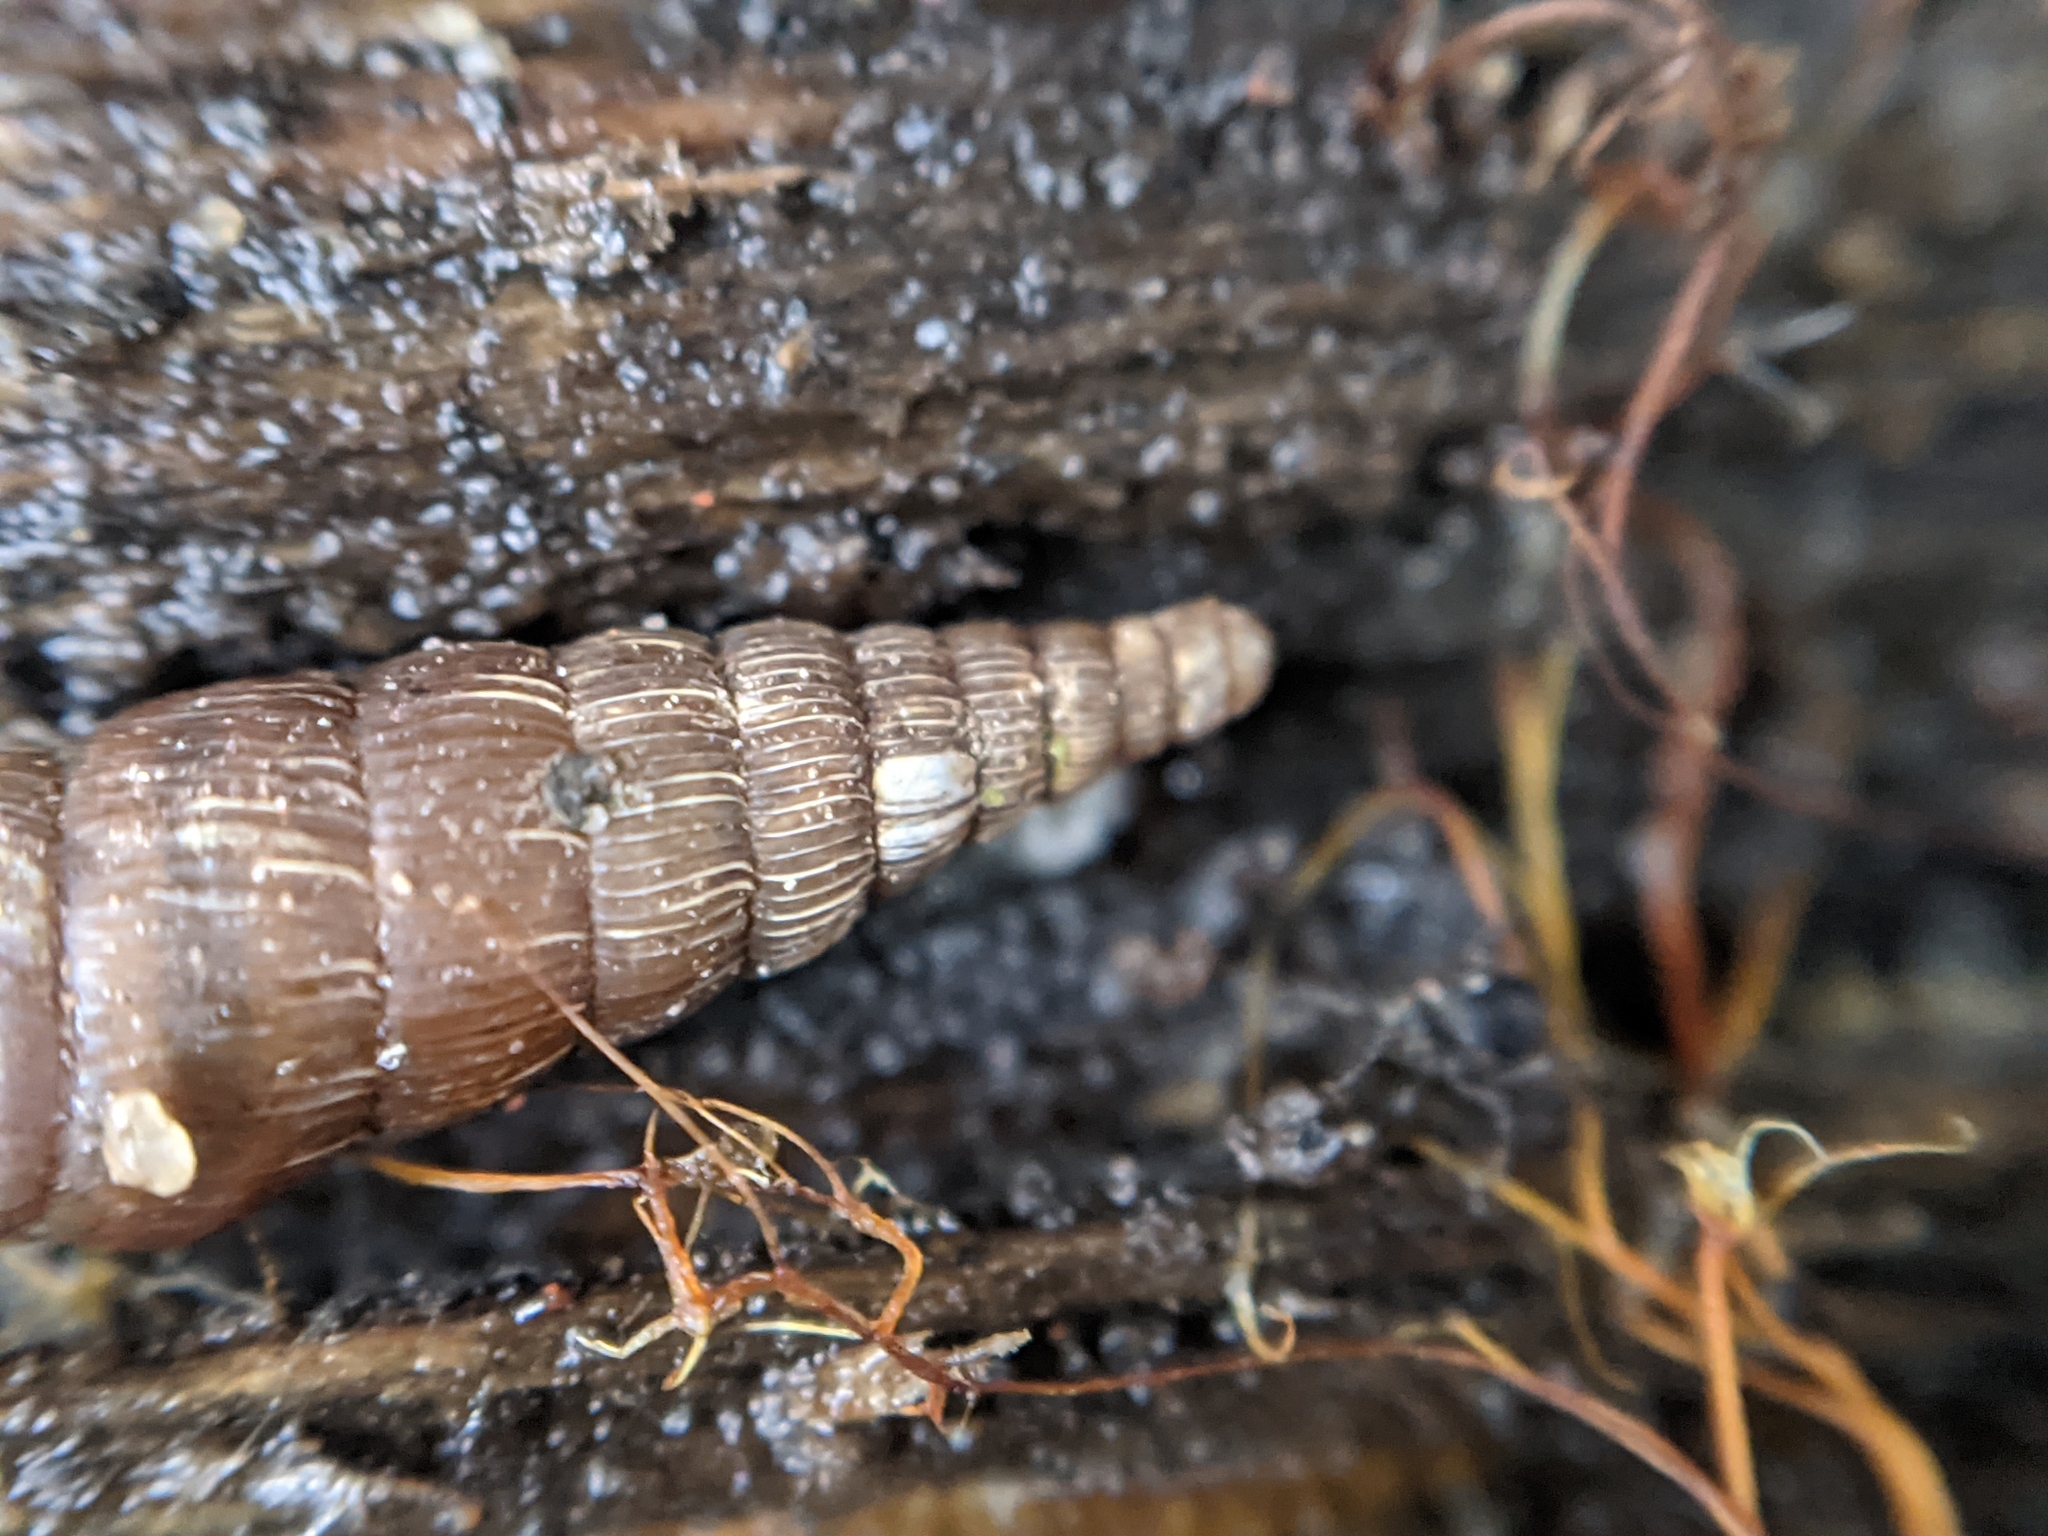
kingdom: Animalia
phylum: Mollusca
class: Gastropoda
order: Stylommatophora
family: Clausiliidae
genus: Alinda
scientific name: Alinda biplicata
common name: Thames door snail
